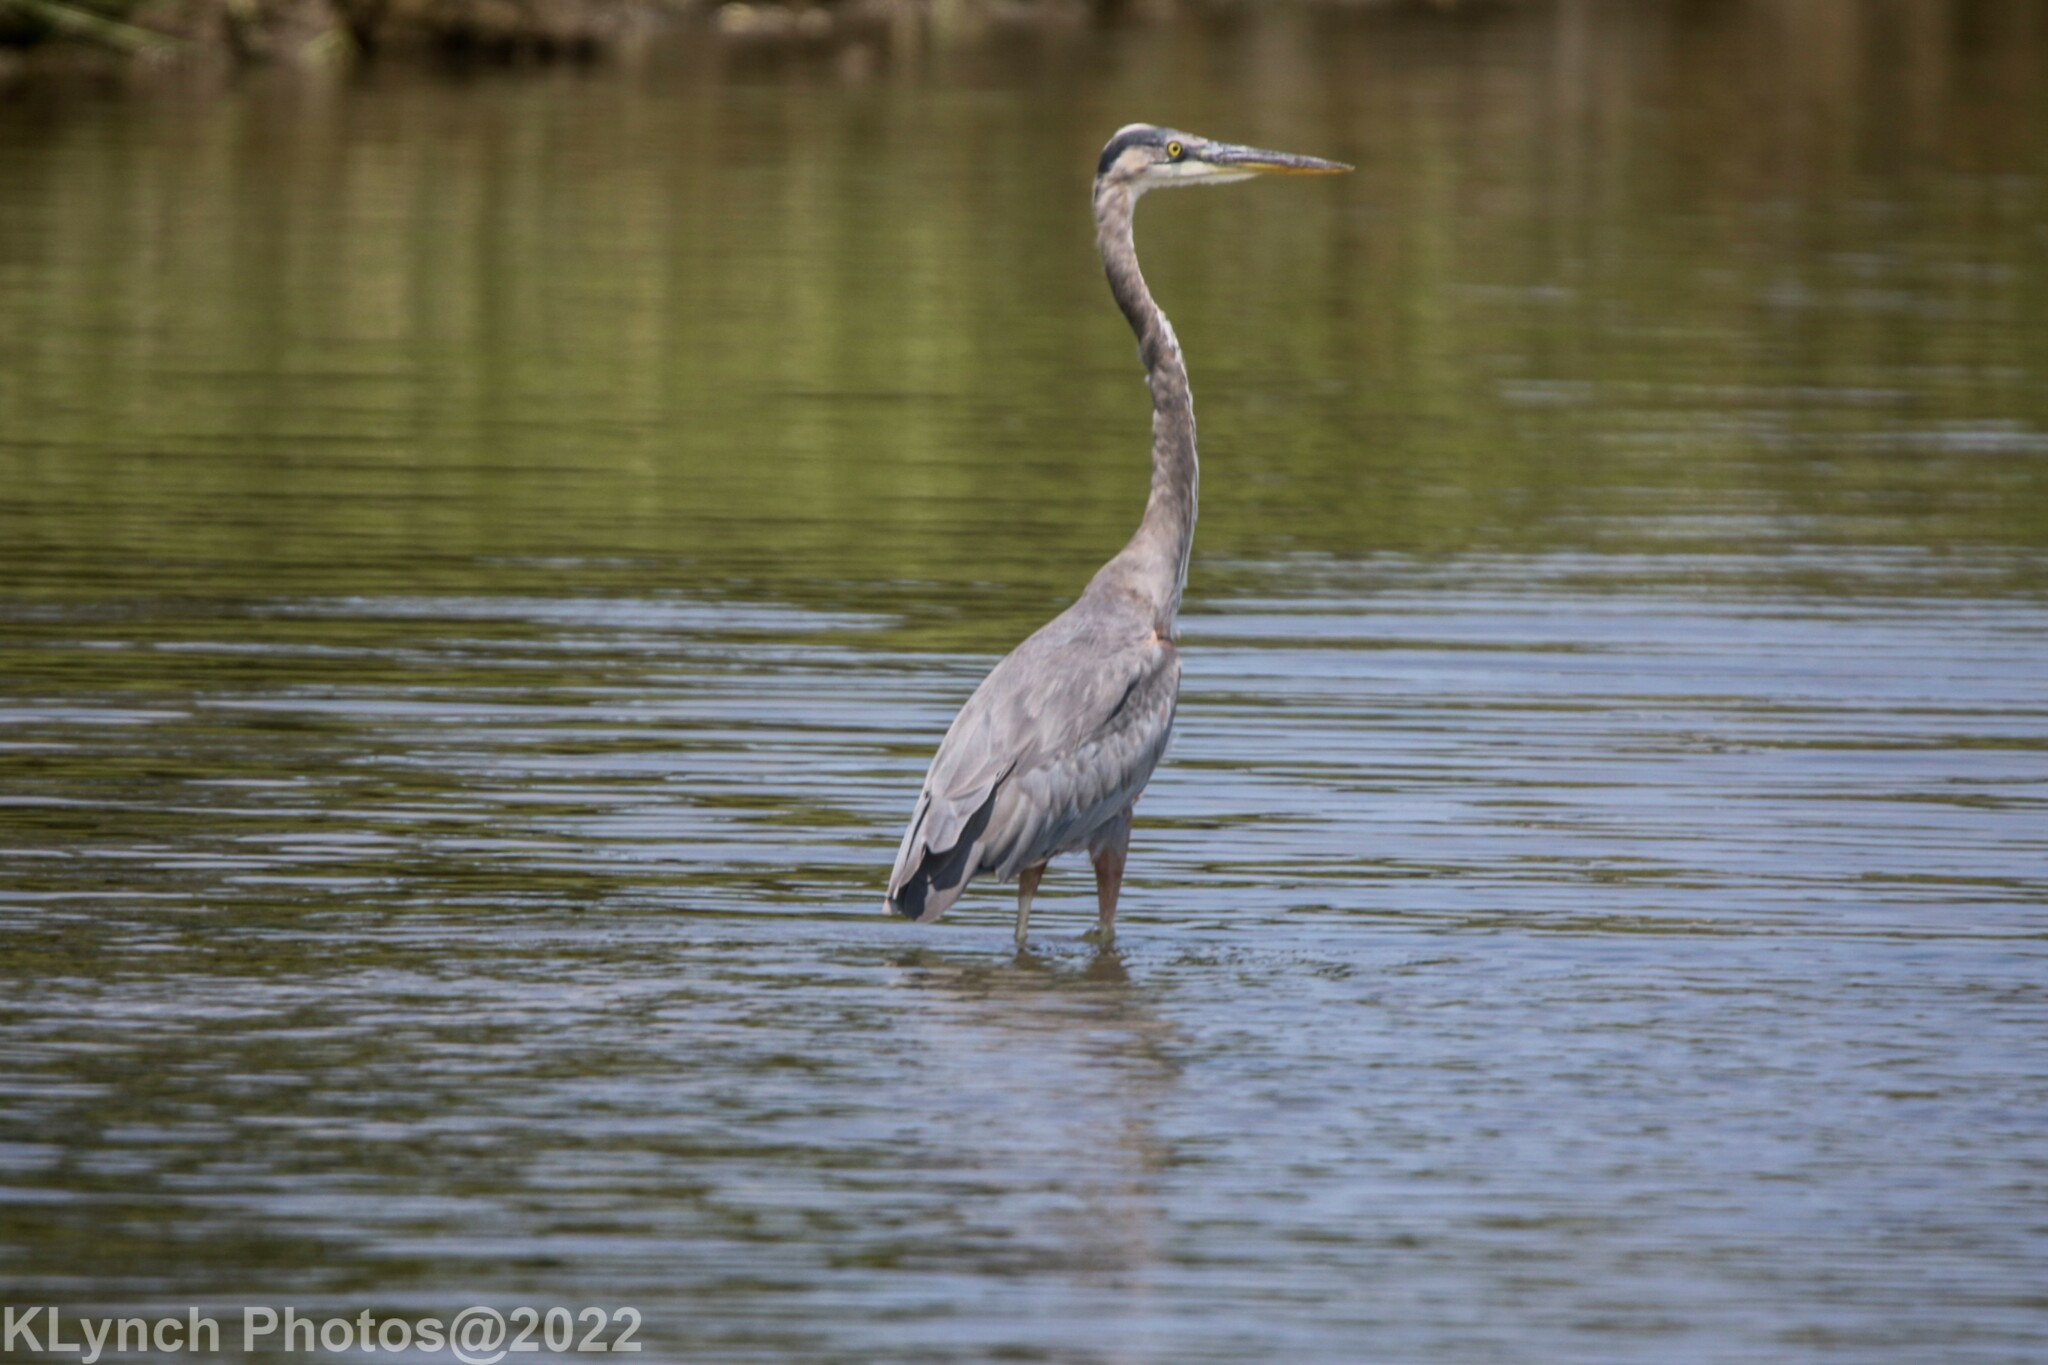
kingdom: Animalia
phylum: Chordata
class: Aves
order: Pelecaniformes
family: Ardeidae
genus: Ardea
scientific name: Ardea herodias
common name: Great blue heron
